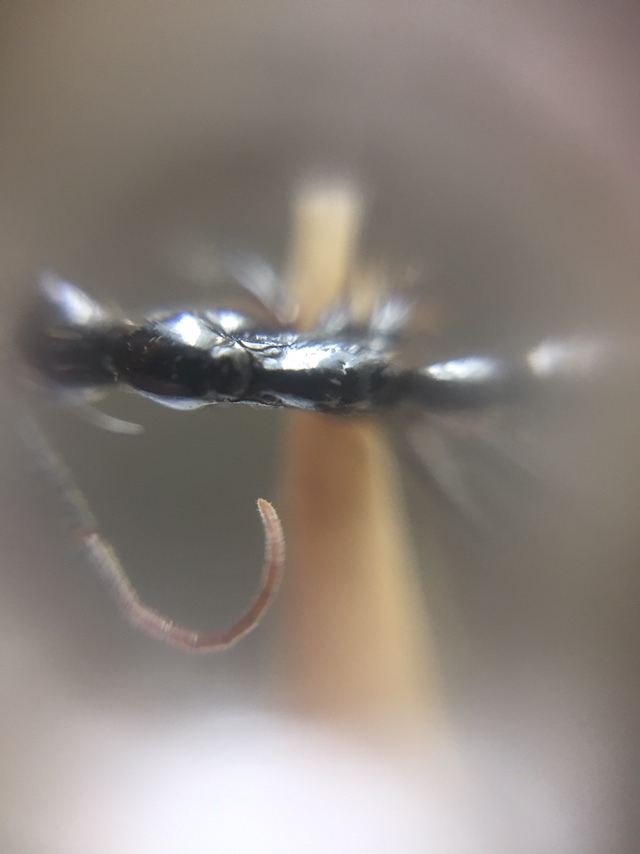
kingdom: Animalia
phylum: Arthropoda
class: Insecta
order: Hymenoptera
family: Formicidae
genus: Leptogenys
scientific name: Leptogenys peuqueti
